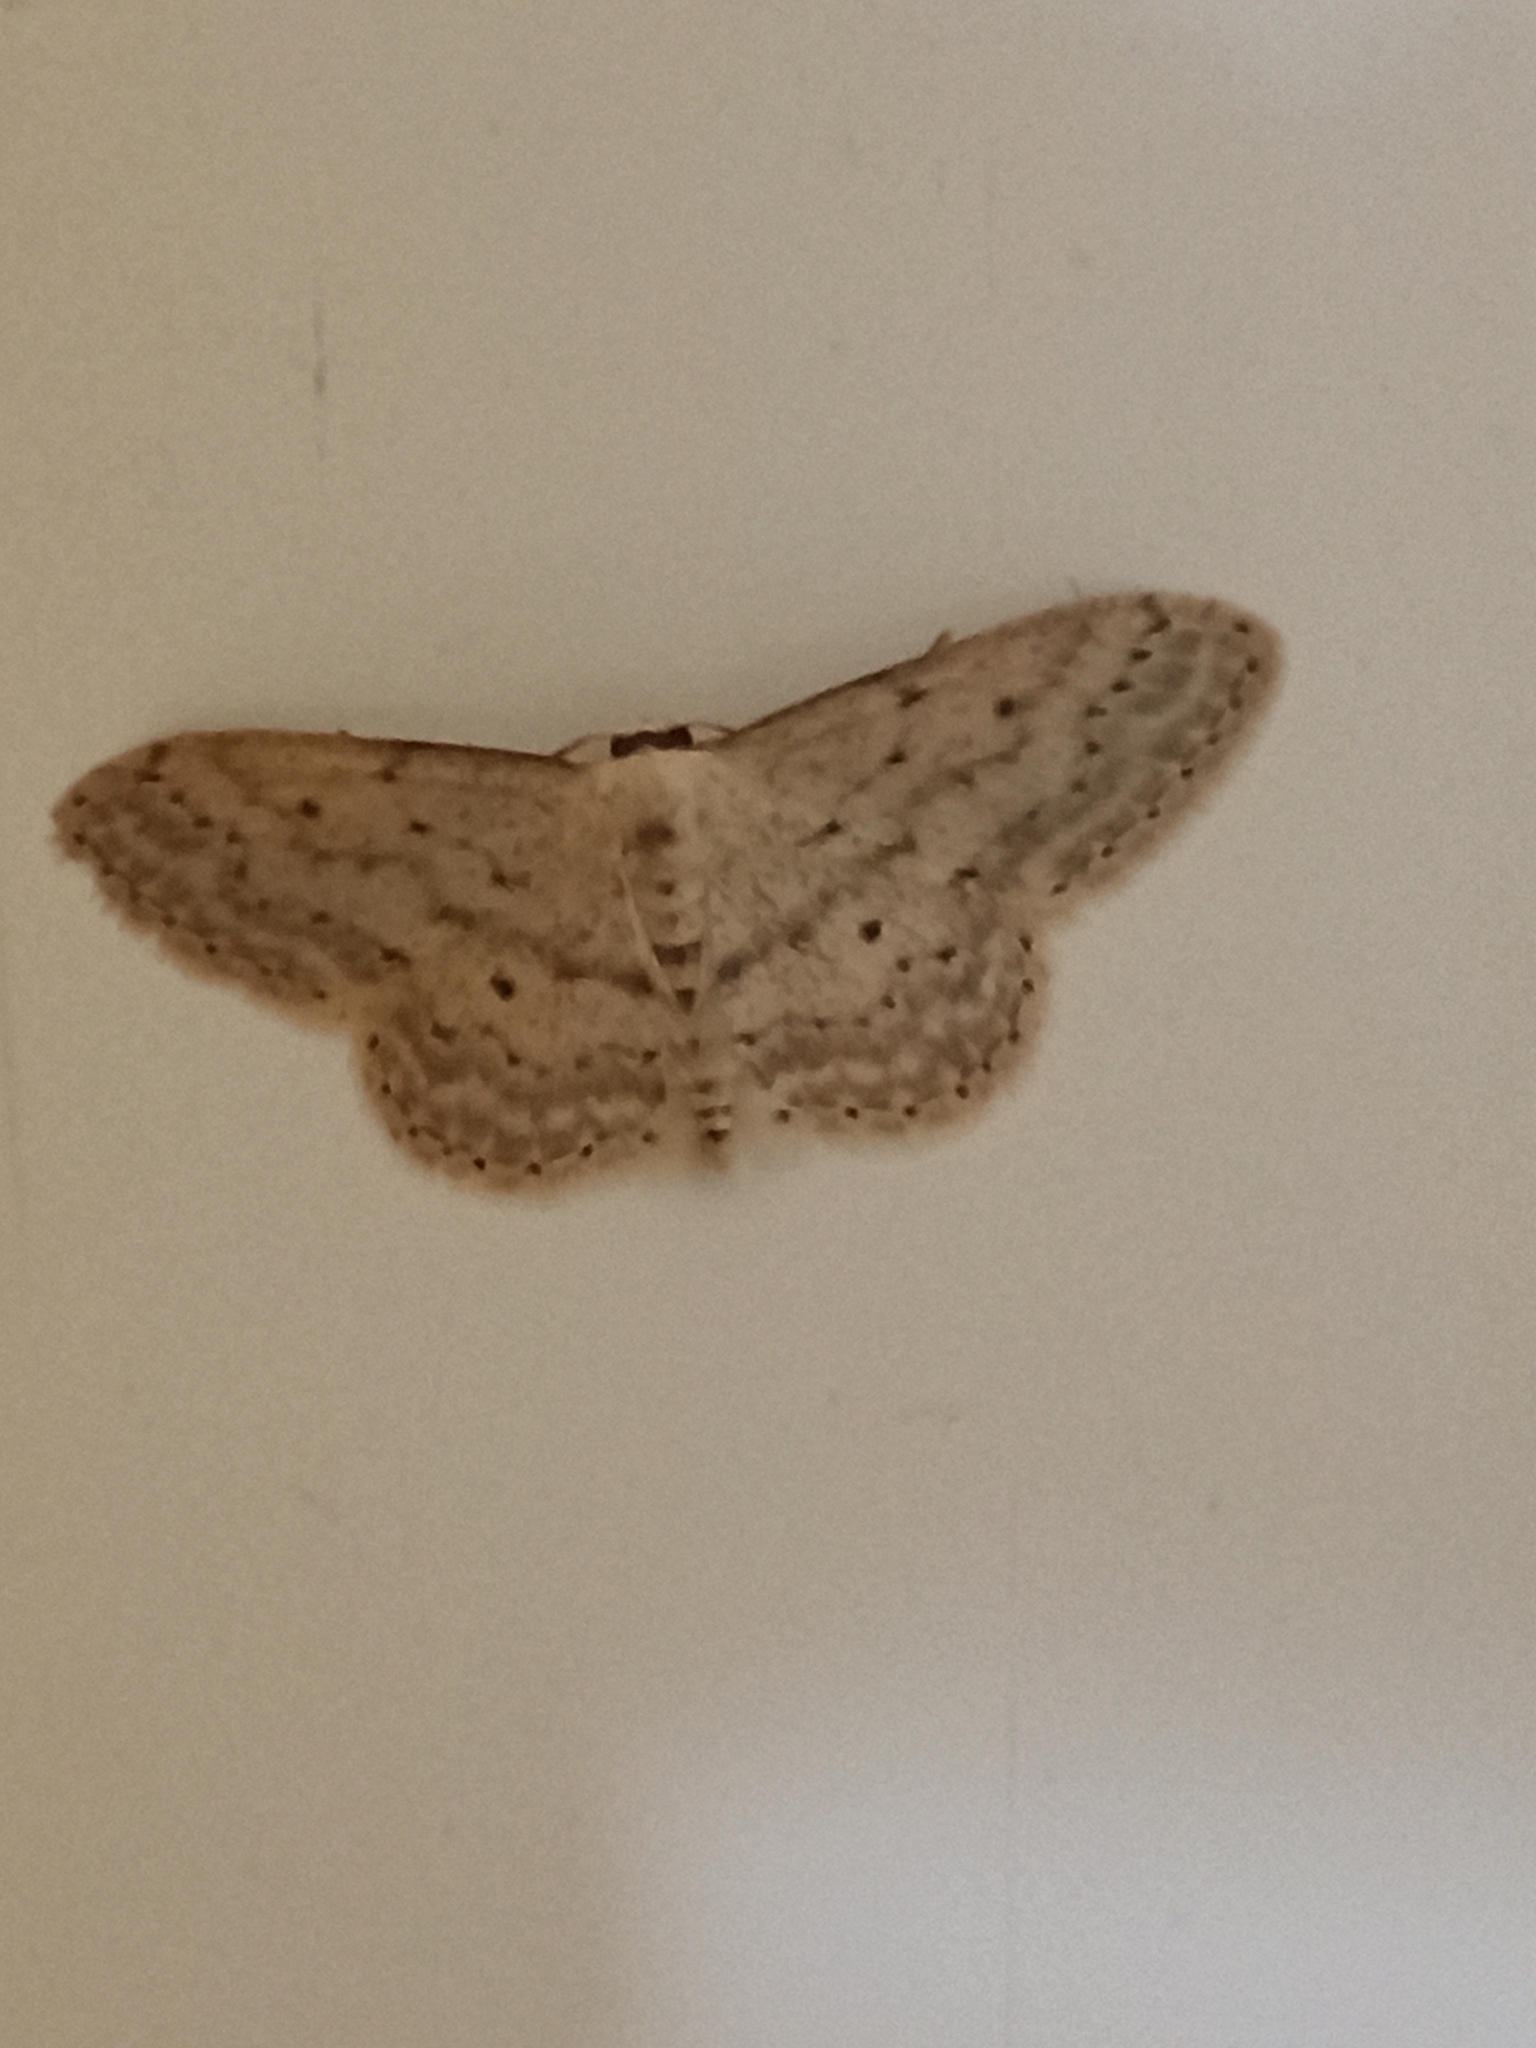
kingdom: Animalia
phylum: Arthropoda
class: Insecta
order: Lepidoptera
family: Geometridae
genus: Idaea
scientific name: Idaea seriata
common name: Small dusty wave
